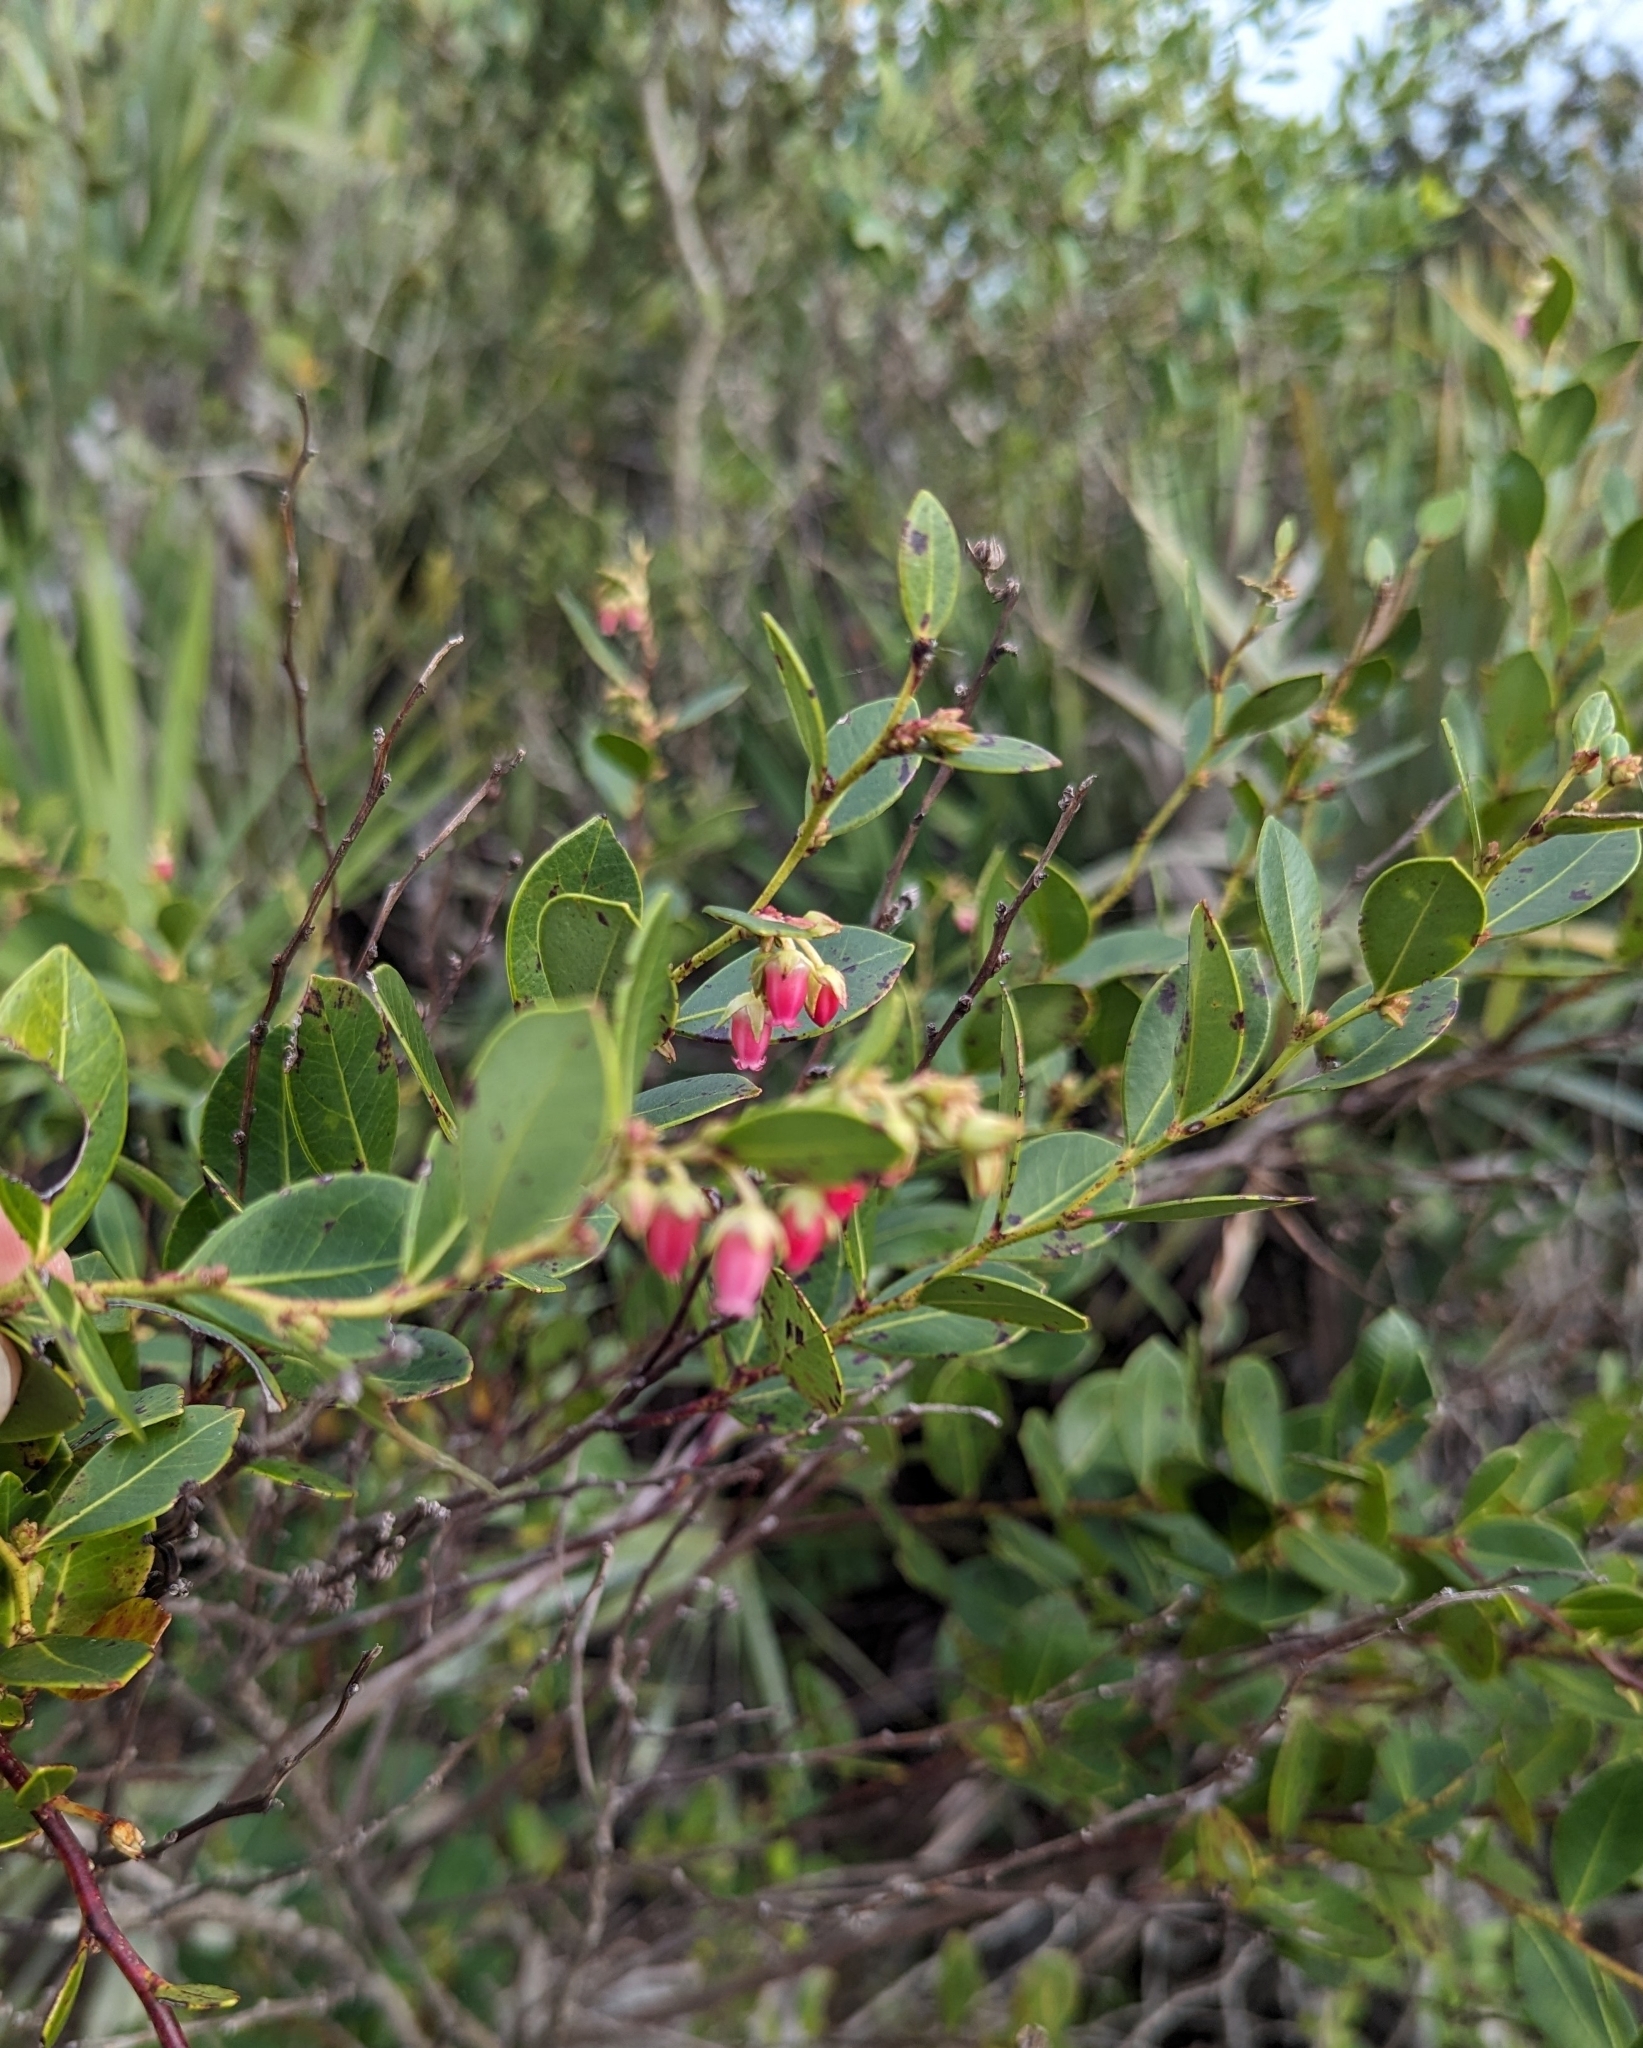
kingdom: Plantae
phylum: Tracheophyta
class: Magnoliopsida
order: Ericales
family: Ericaceae
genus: Lyonia
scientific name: Lyonia lucida
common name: Fetterbush
